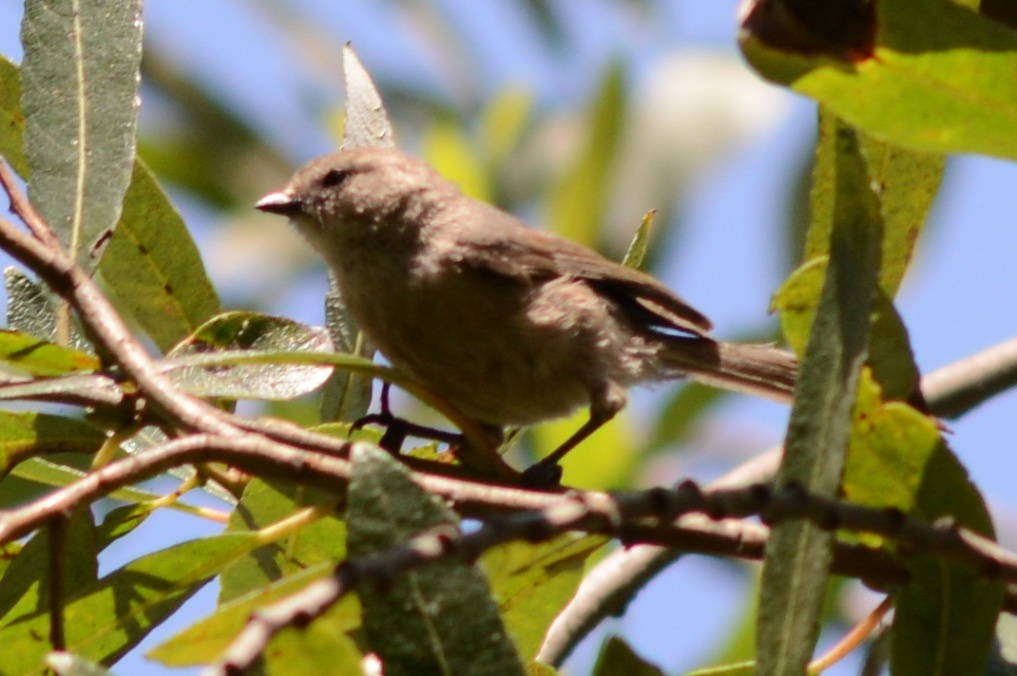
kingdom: Animalia
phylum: Chordata
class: Aves
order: Passeriformes
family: Aegithalidae
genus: Psaltriparus
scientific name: Psaltriparus minimus
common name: American bushtit
